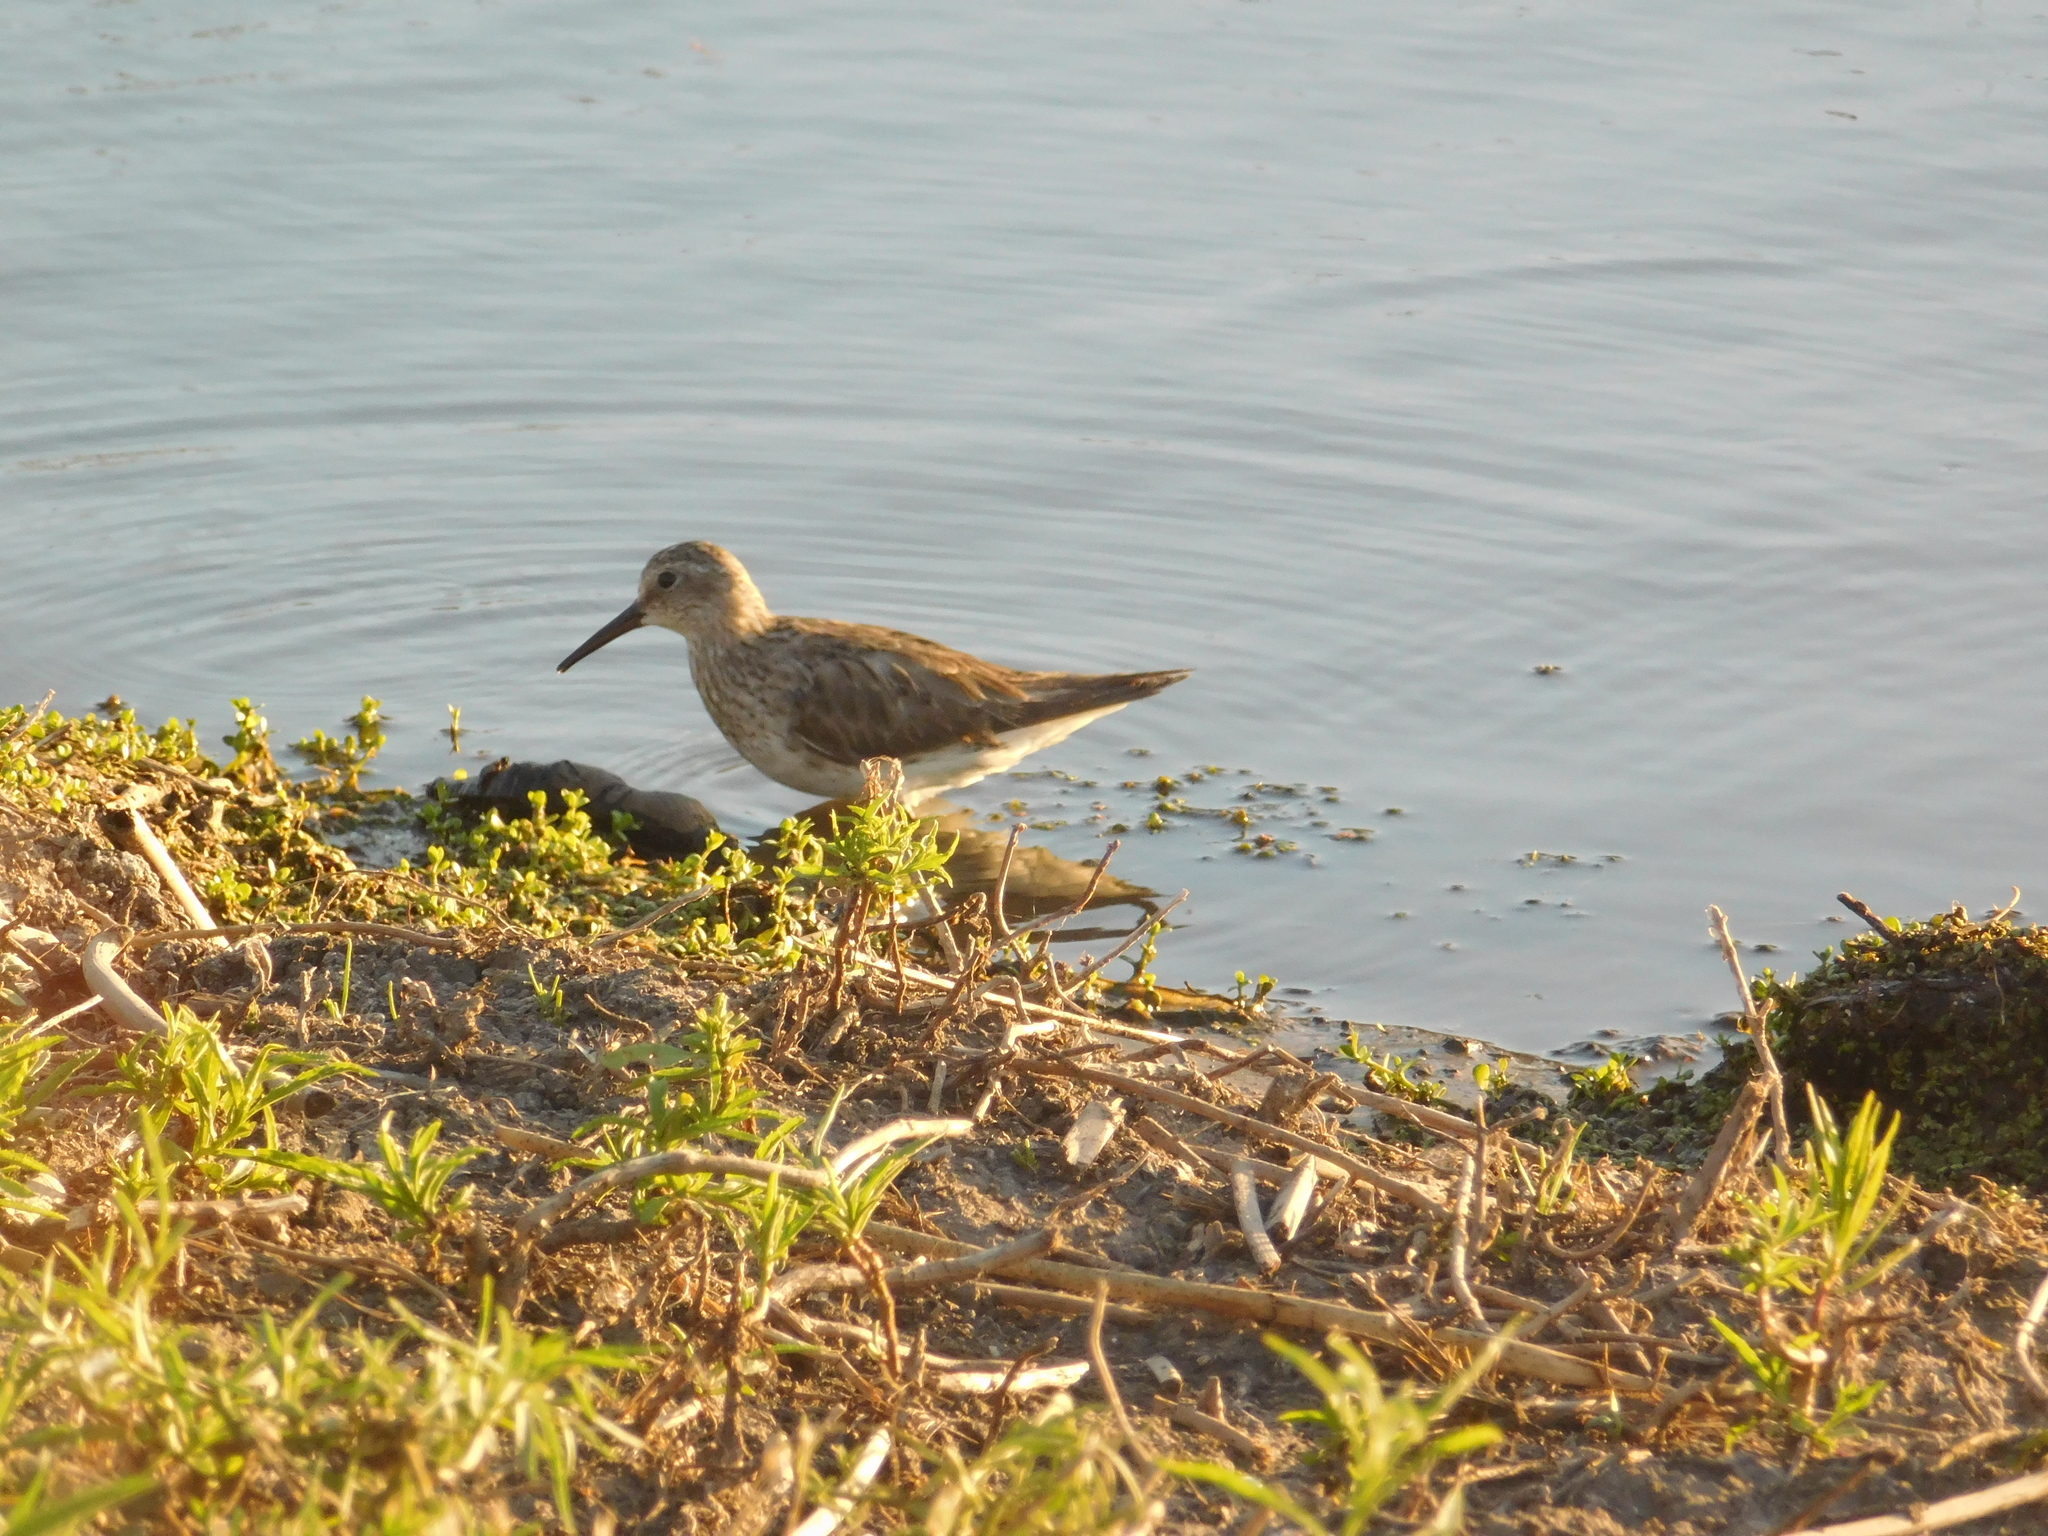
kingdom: Animalia
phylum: Chordata
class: Aves
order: Charadriiformes
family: Scolopacidae
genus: Calidris
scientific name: Calidris melanotos
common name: Pectoral sandpiper
